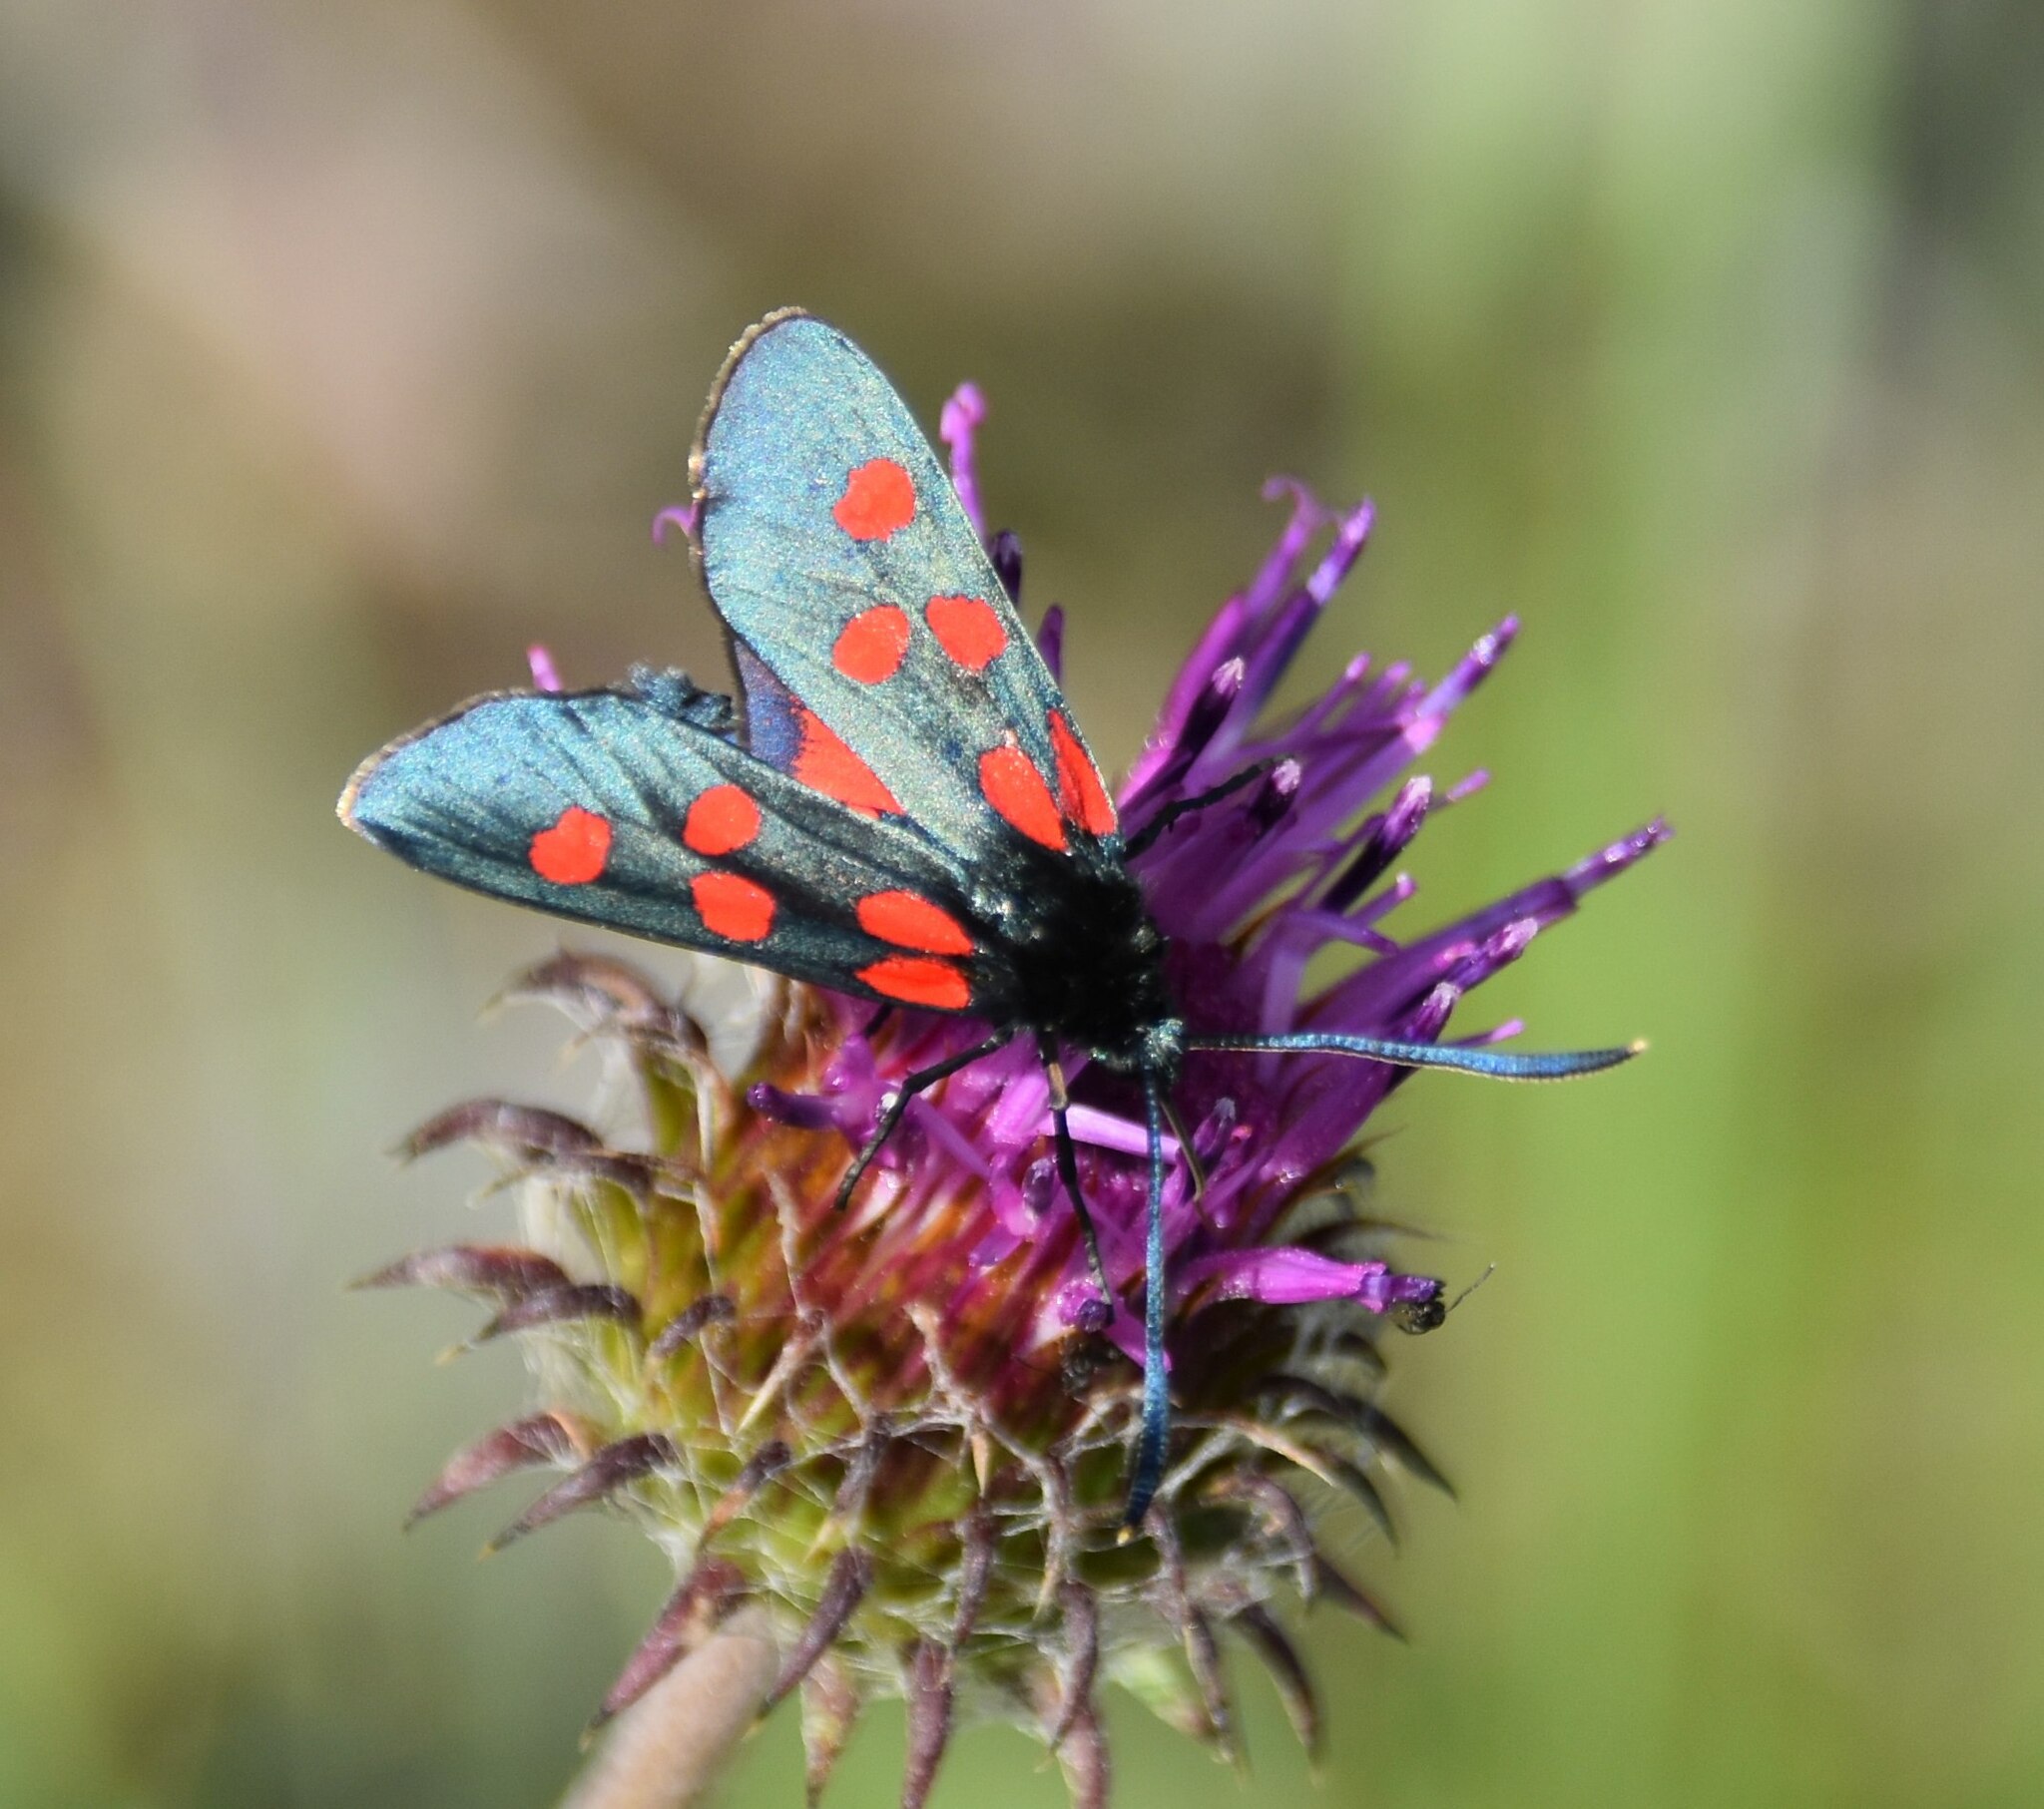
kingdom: Animalia
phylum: Arthropoda
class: Insecta
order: Lepidoptera
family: Zygaenidae
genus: Zygaena
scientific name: Zygaena angelicae
